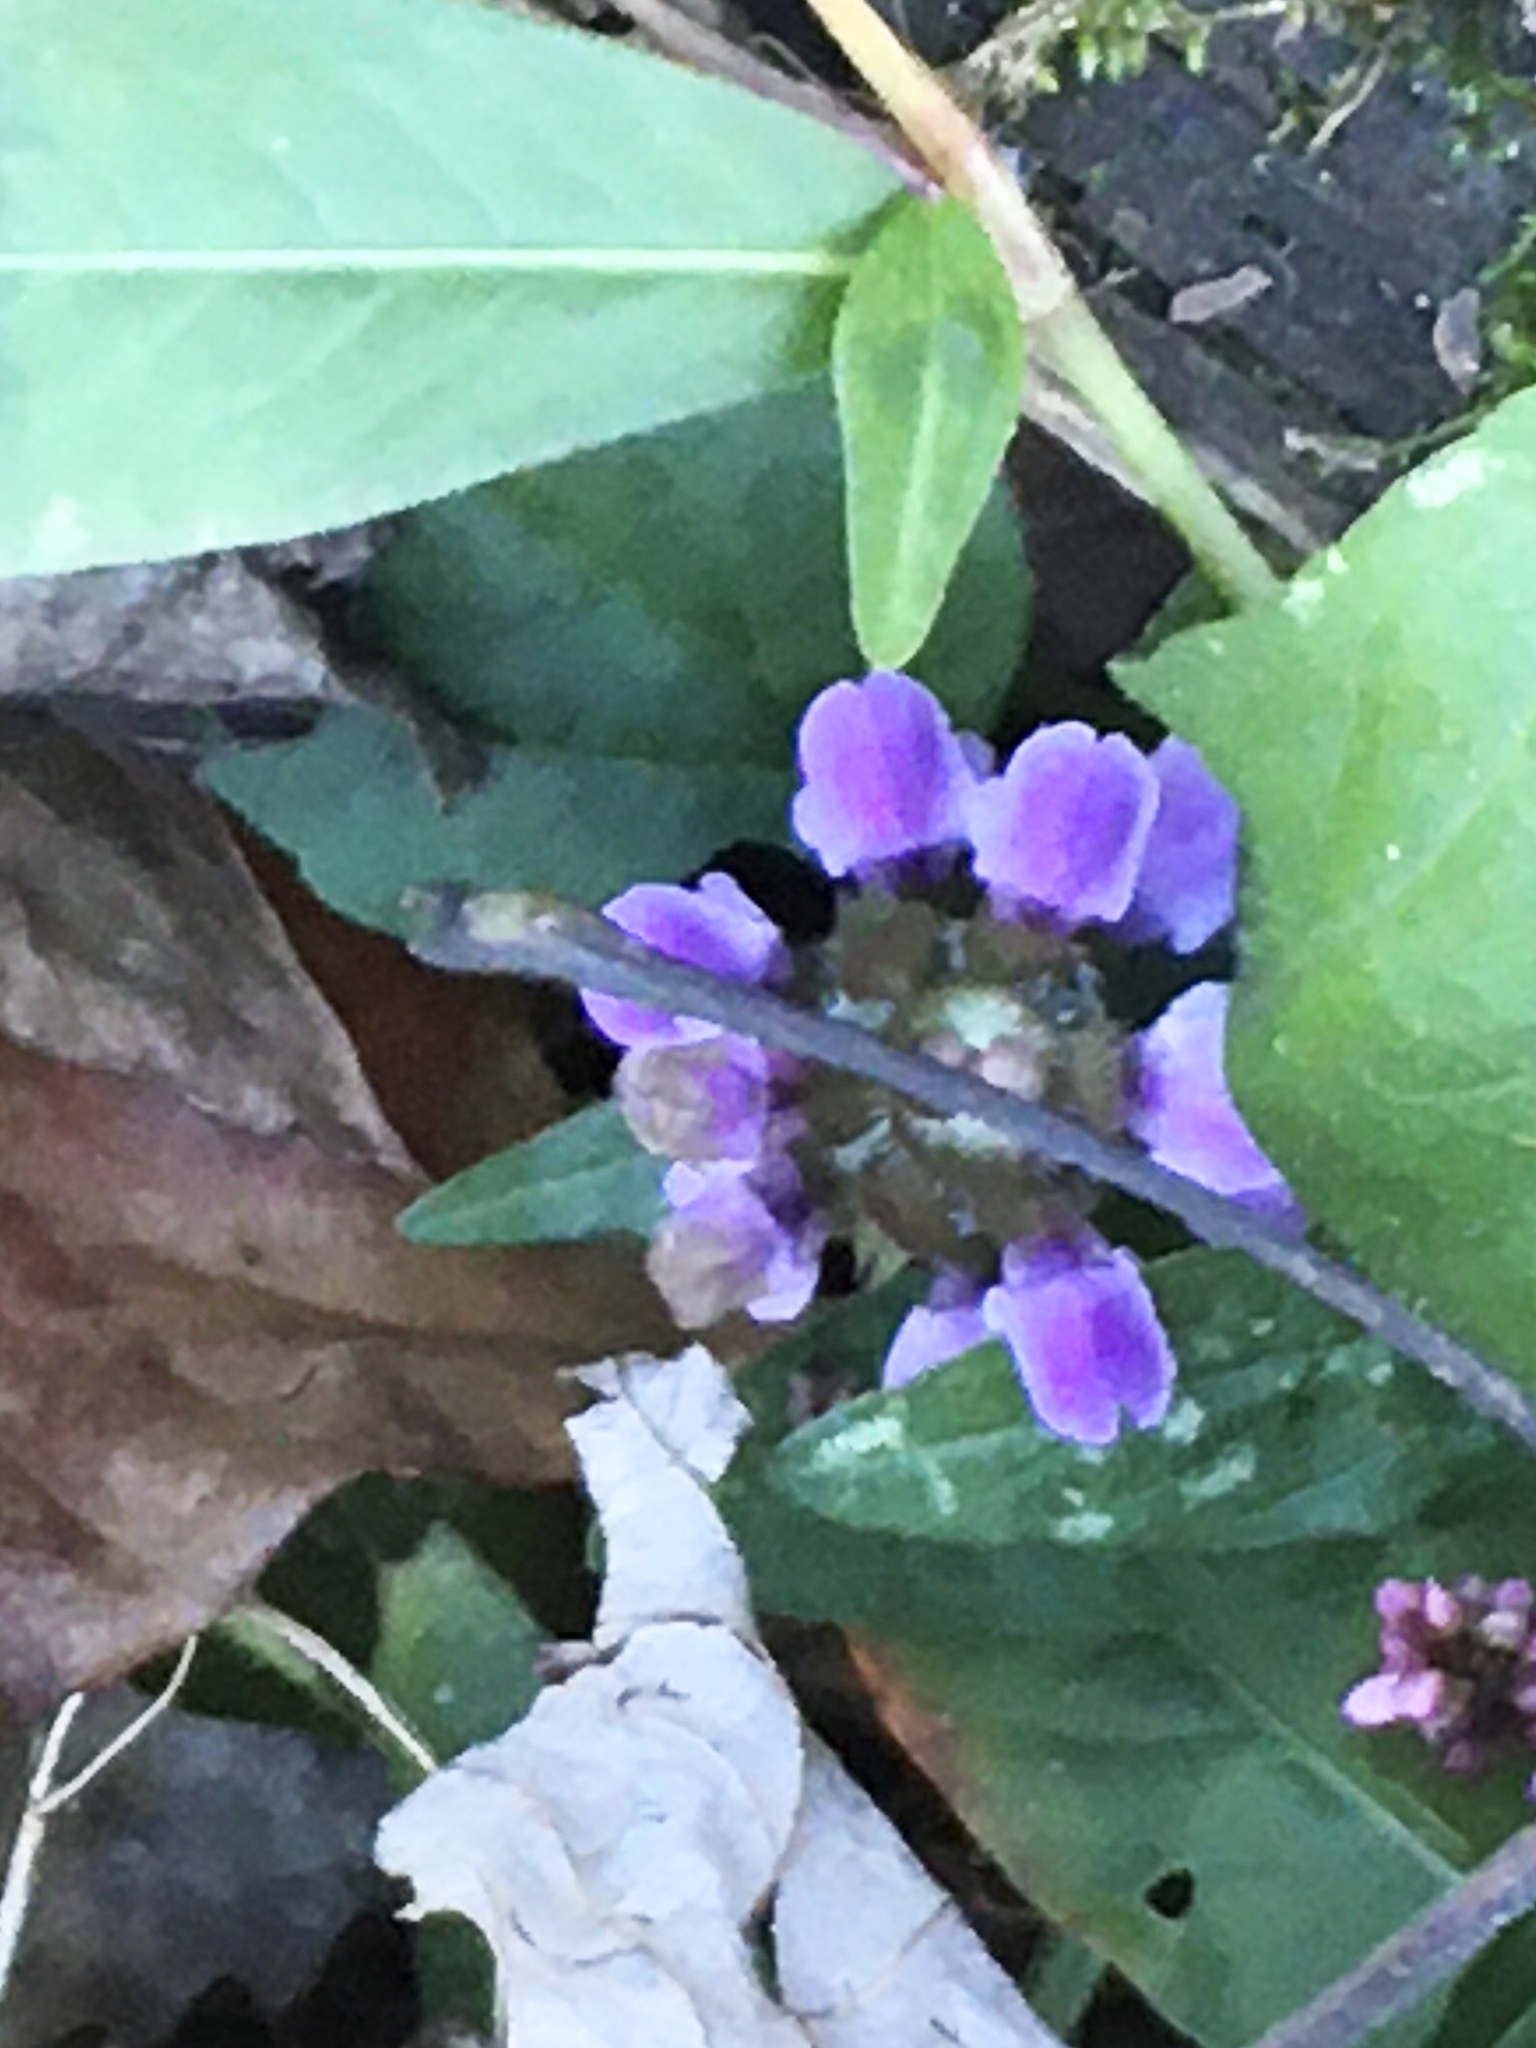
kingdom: Plantae
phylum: Tracheophyta
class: Magnoliopsida
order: Lamiales
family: Lamiaceae
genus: Prunella
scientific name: Prunella vulgaris
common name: Heal-all
